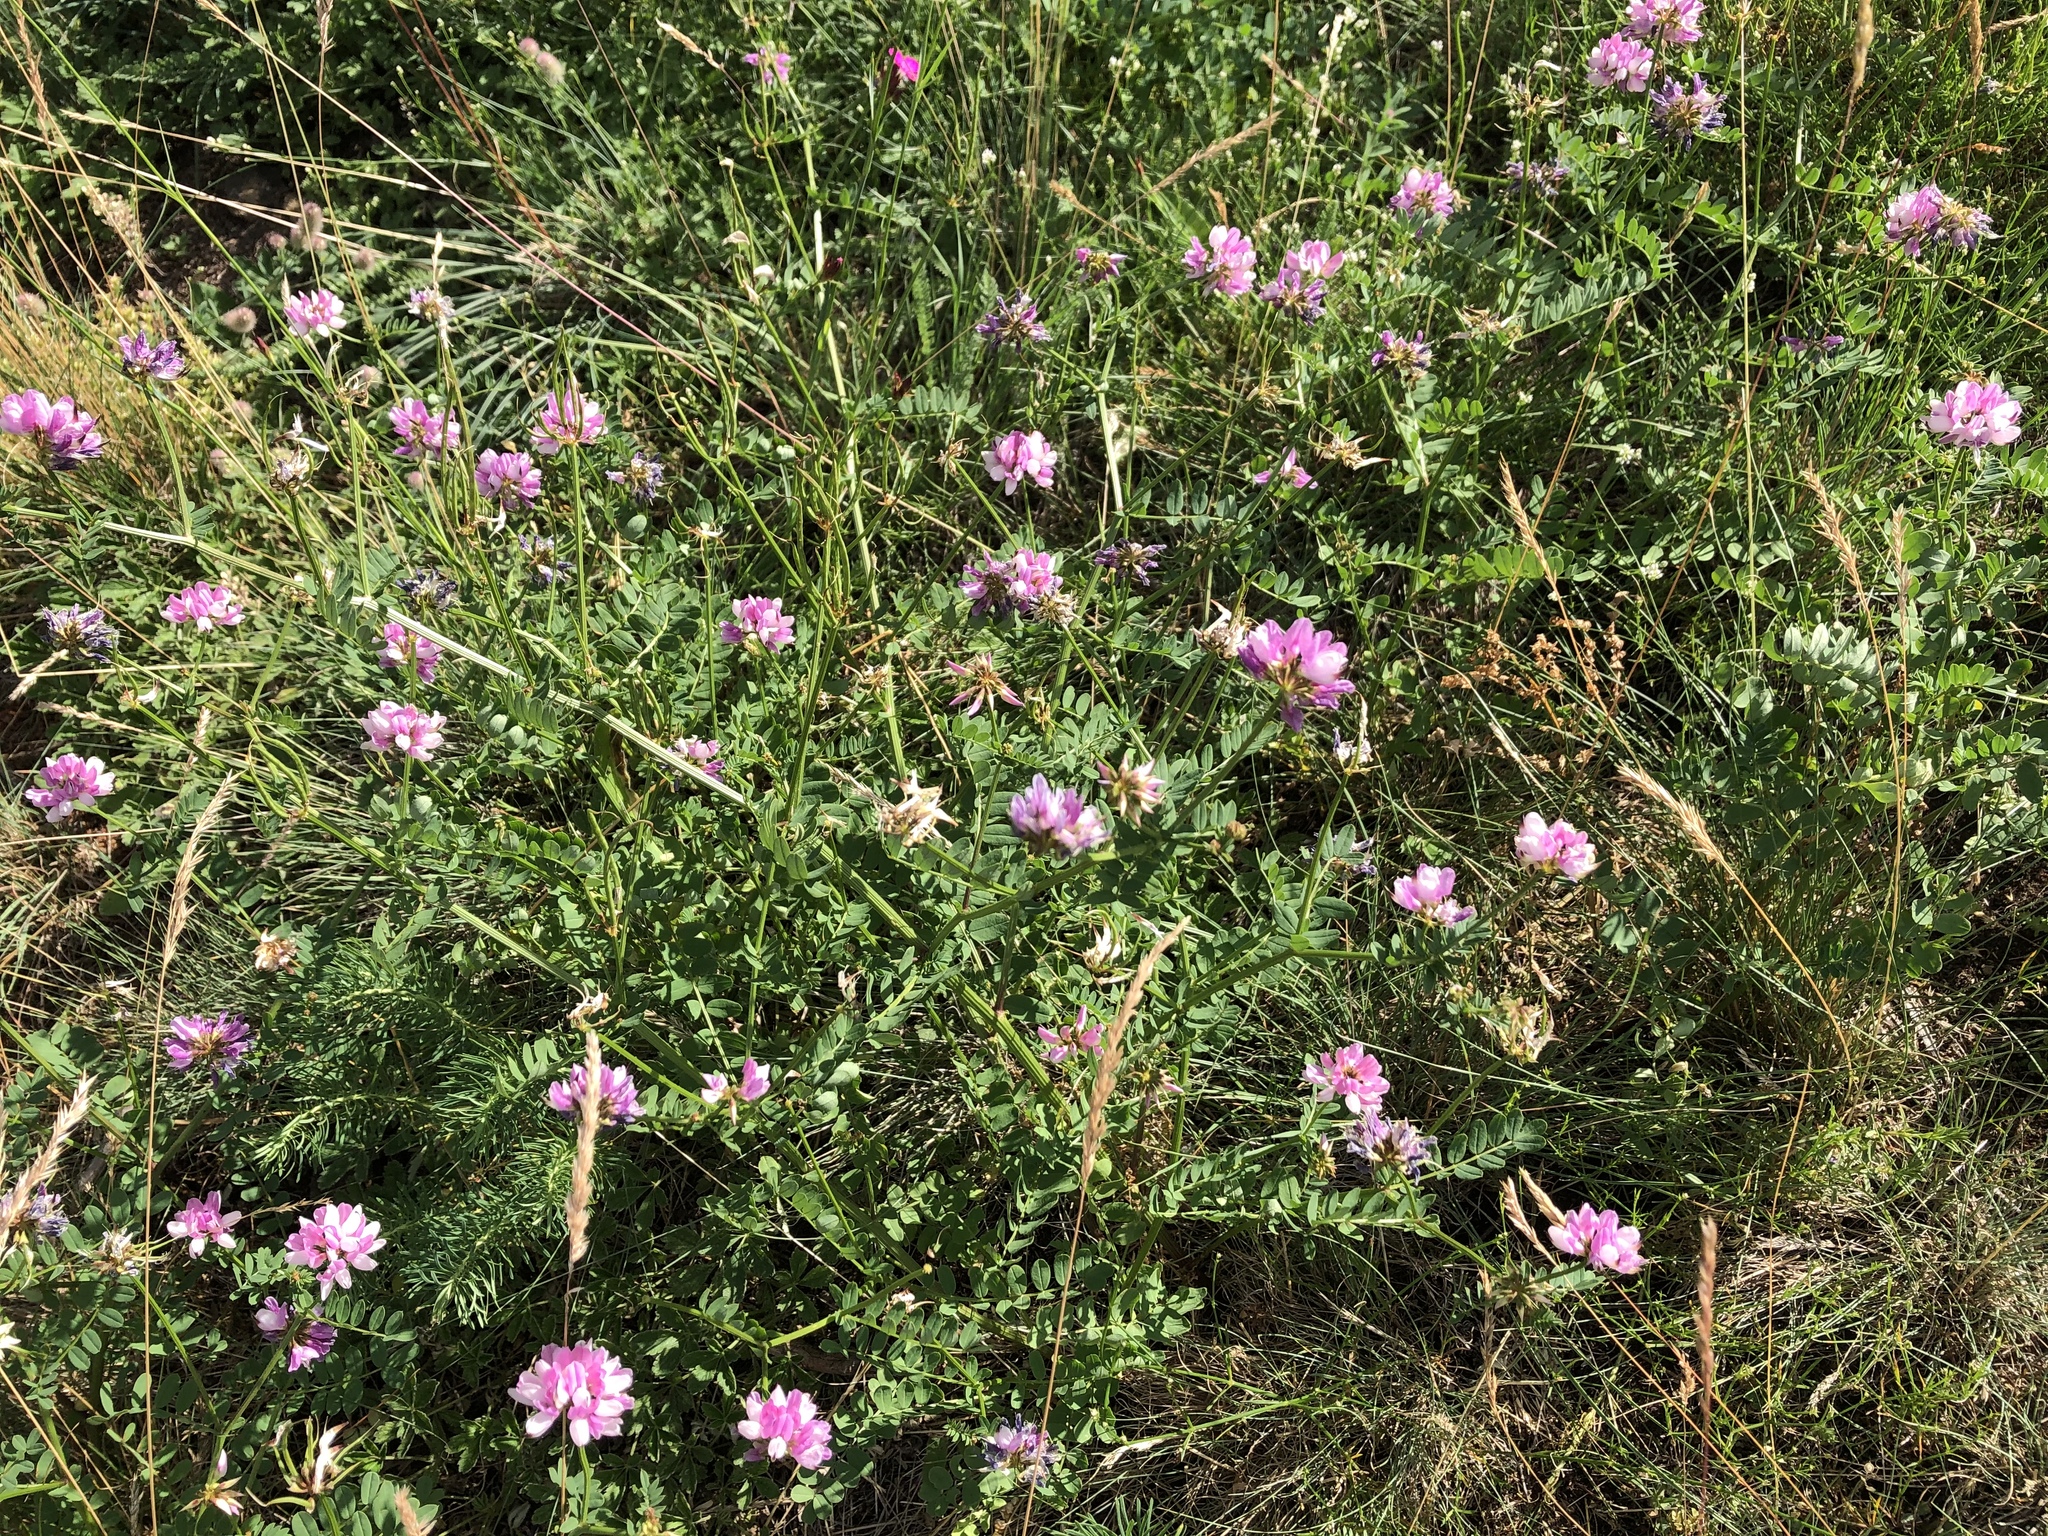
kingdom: Plantae
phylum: Tracheophyta
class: Magnoliopsida
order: Fabales
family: Fabaceae
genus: Coronilla
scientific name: Coronilla varia
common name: Crownvetch
